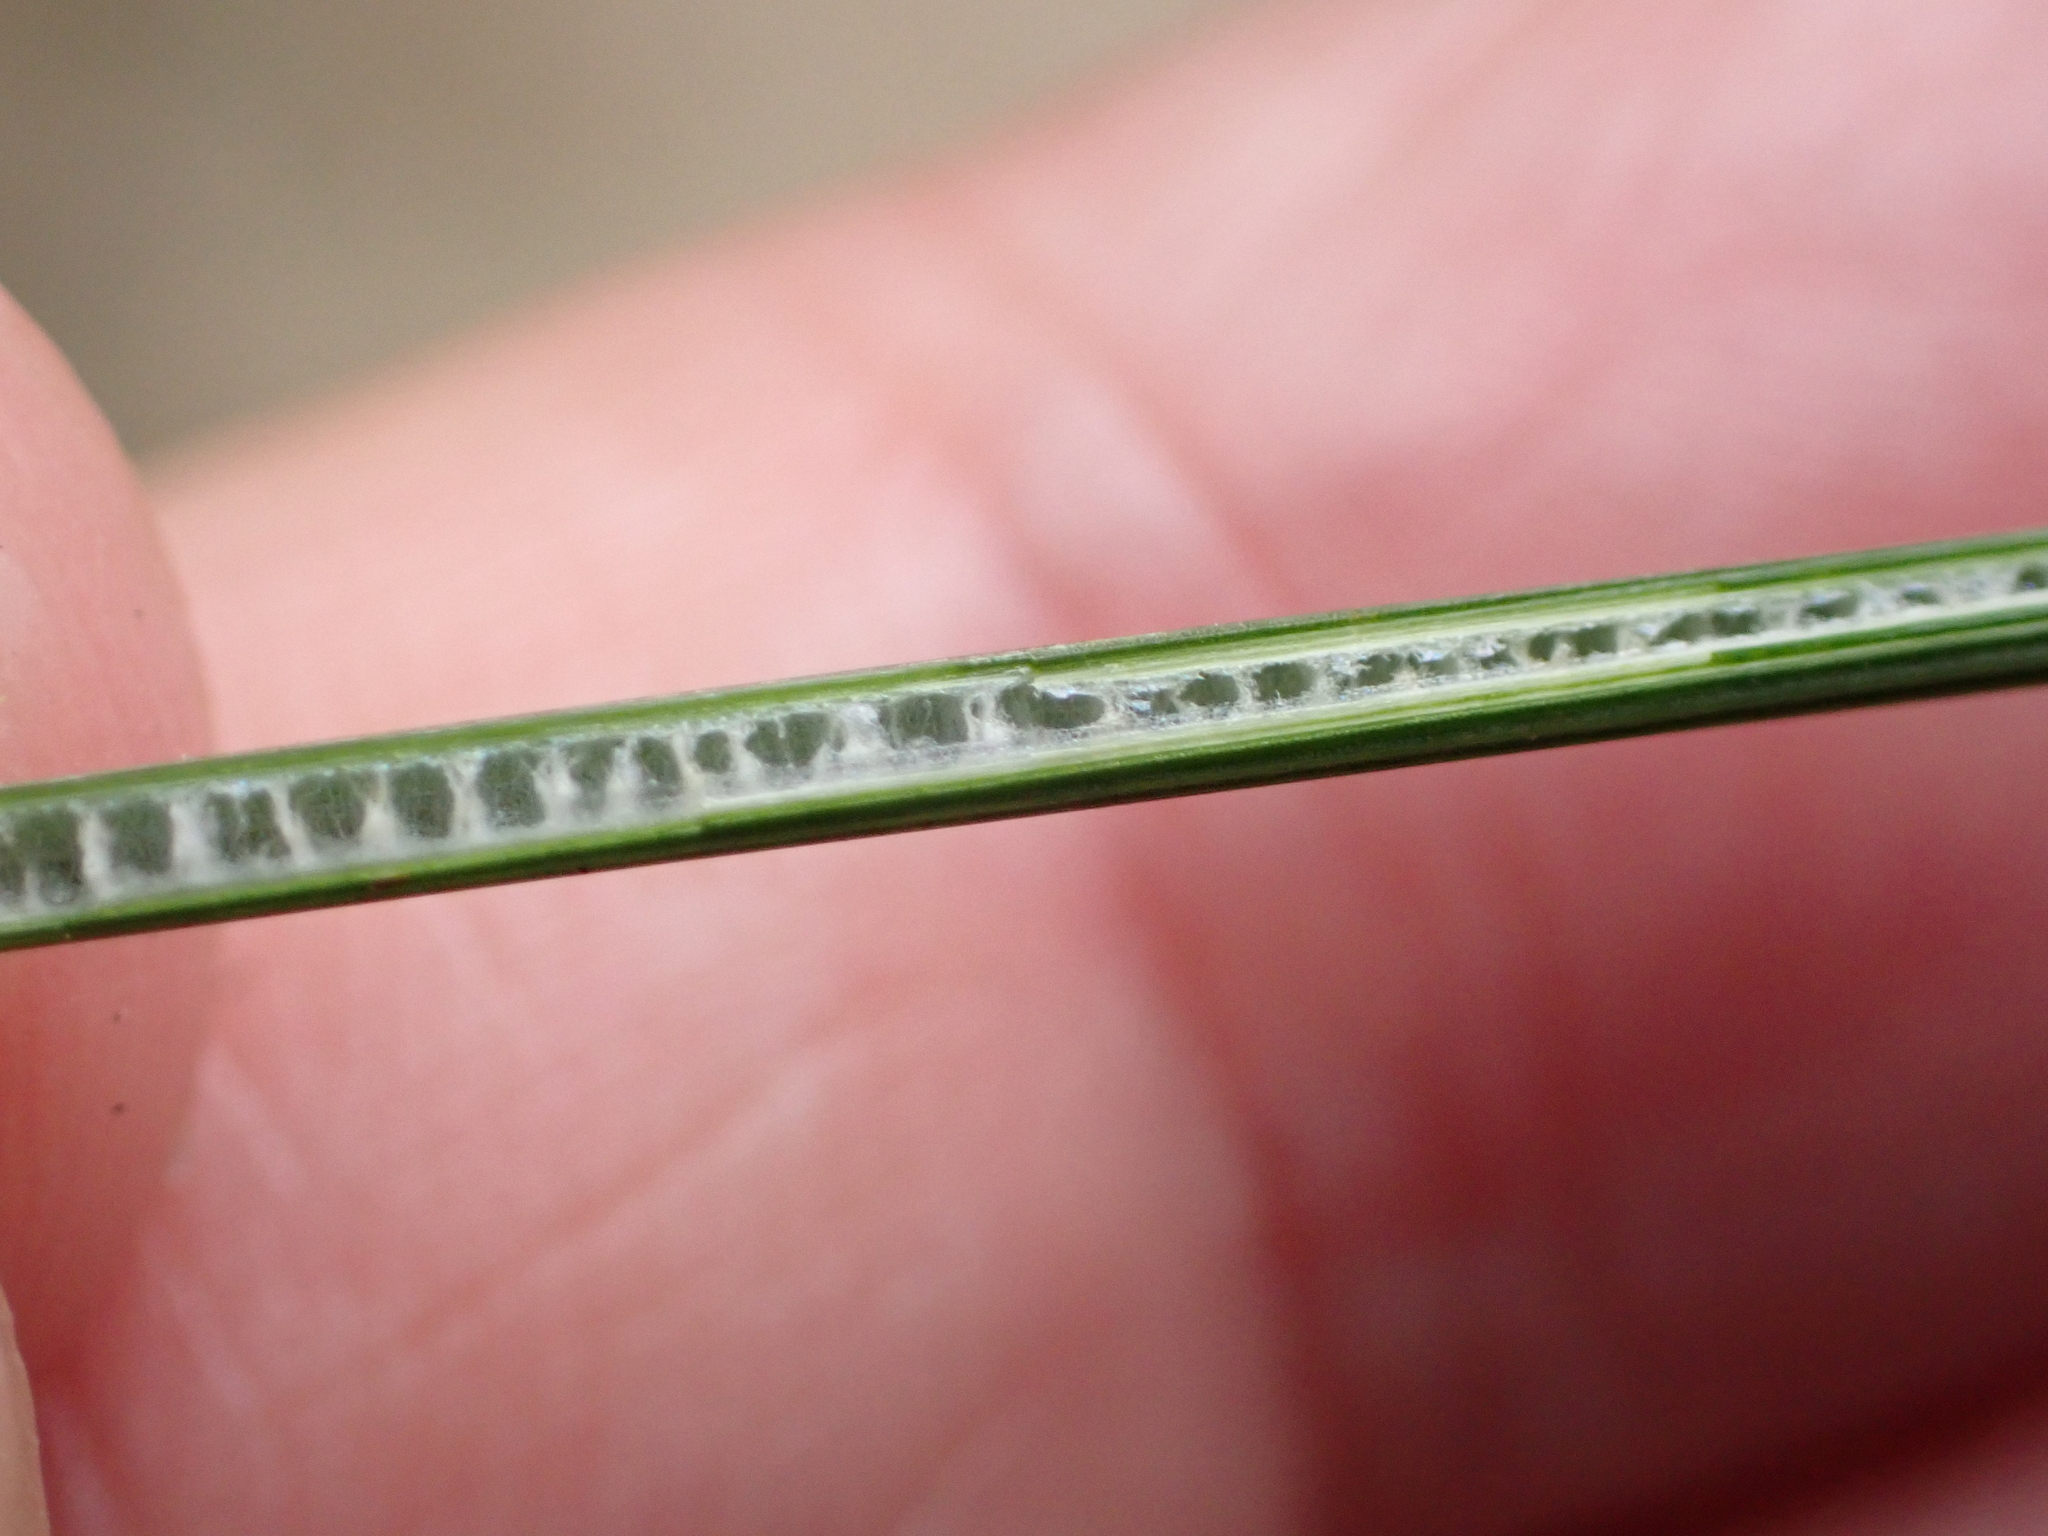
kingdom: Plantae
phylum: Tracheophyta
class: Liliopsida
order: Poales
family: Juncaceae
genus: Juncus
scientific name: Juncus inflexus
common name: Hard rush
